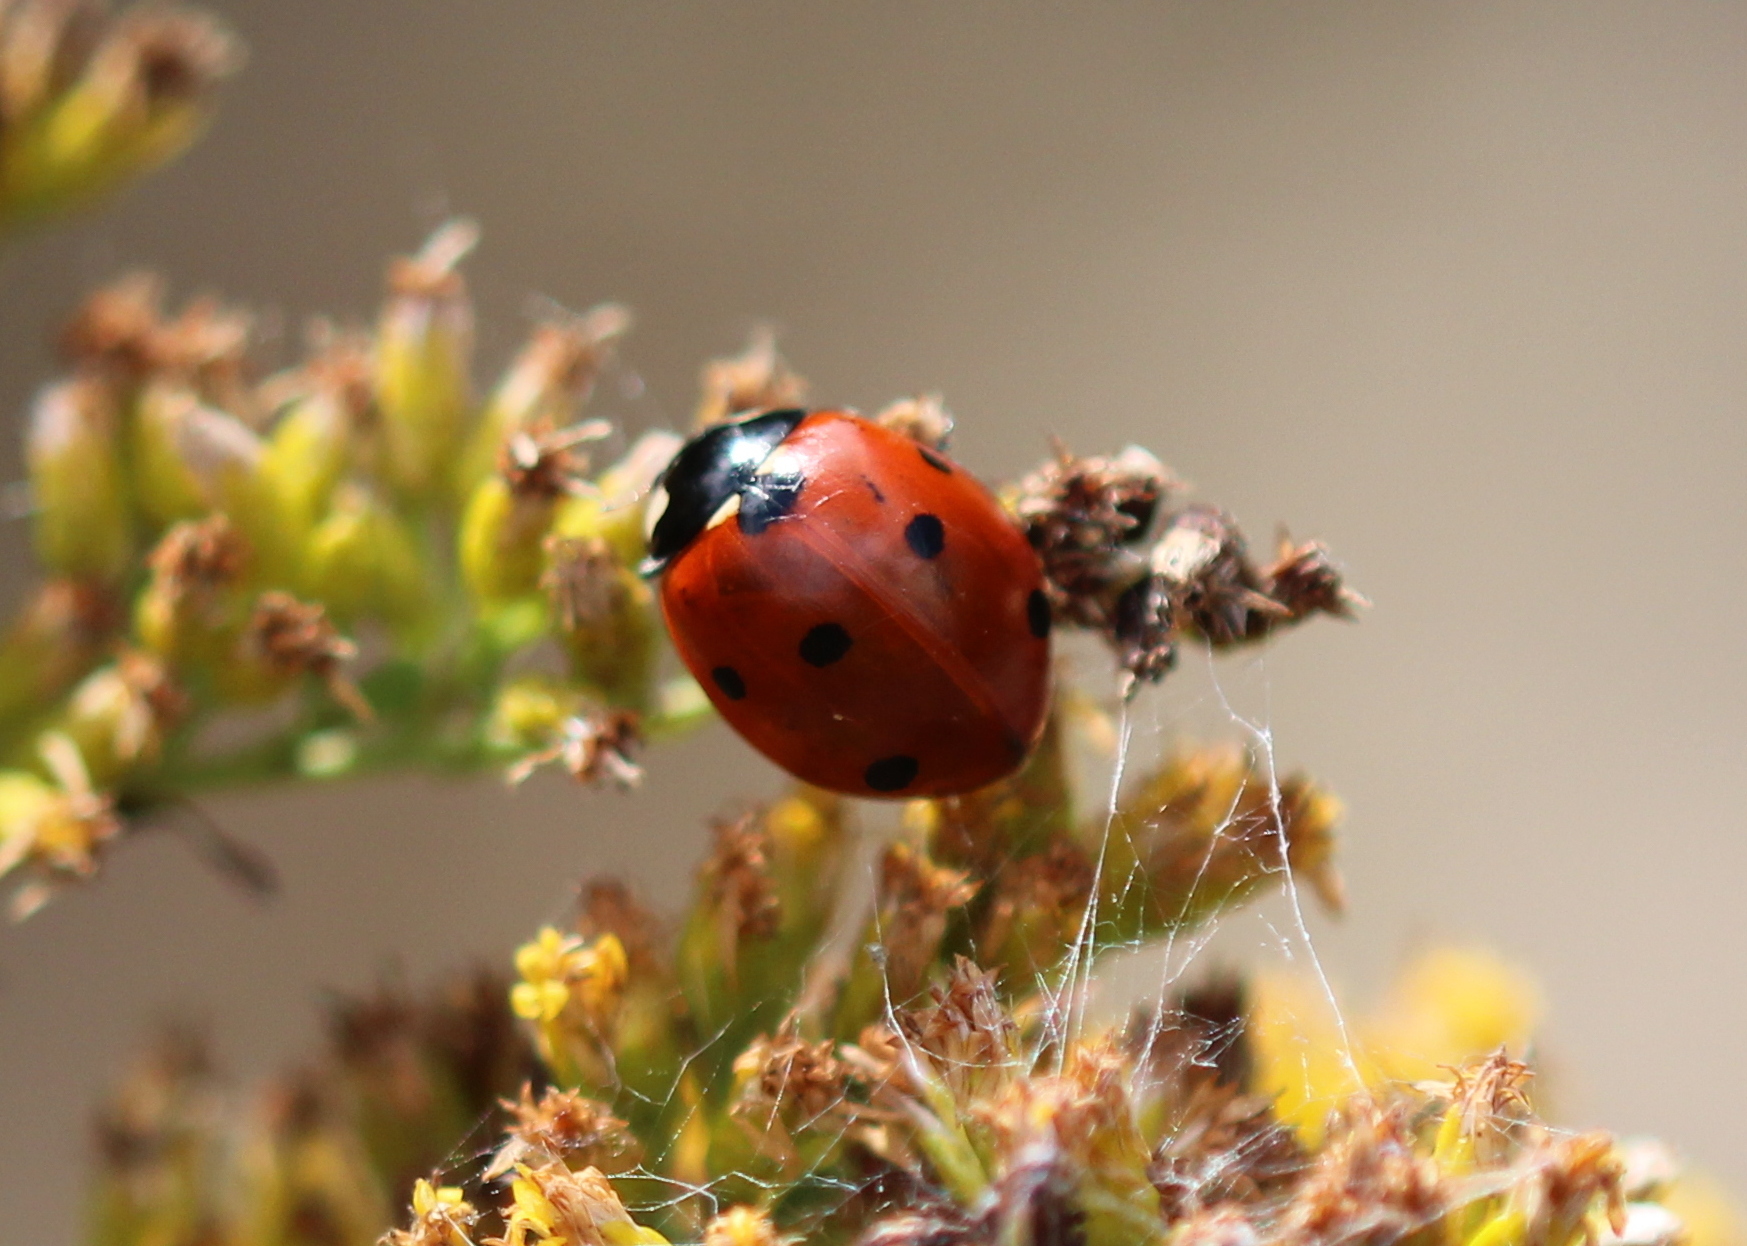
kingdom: Animalia
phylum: Arthropoda
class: Insecta
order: Coleoptera
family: Coccinellidae
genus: Coccinella
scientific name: Coccinella septempunctata
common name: Sevenspotted lady beetle
